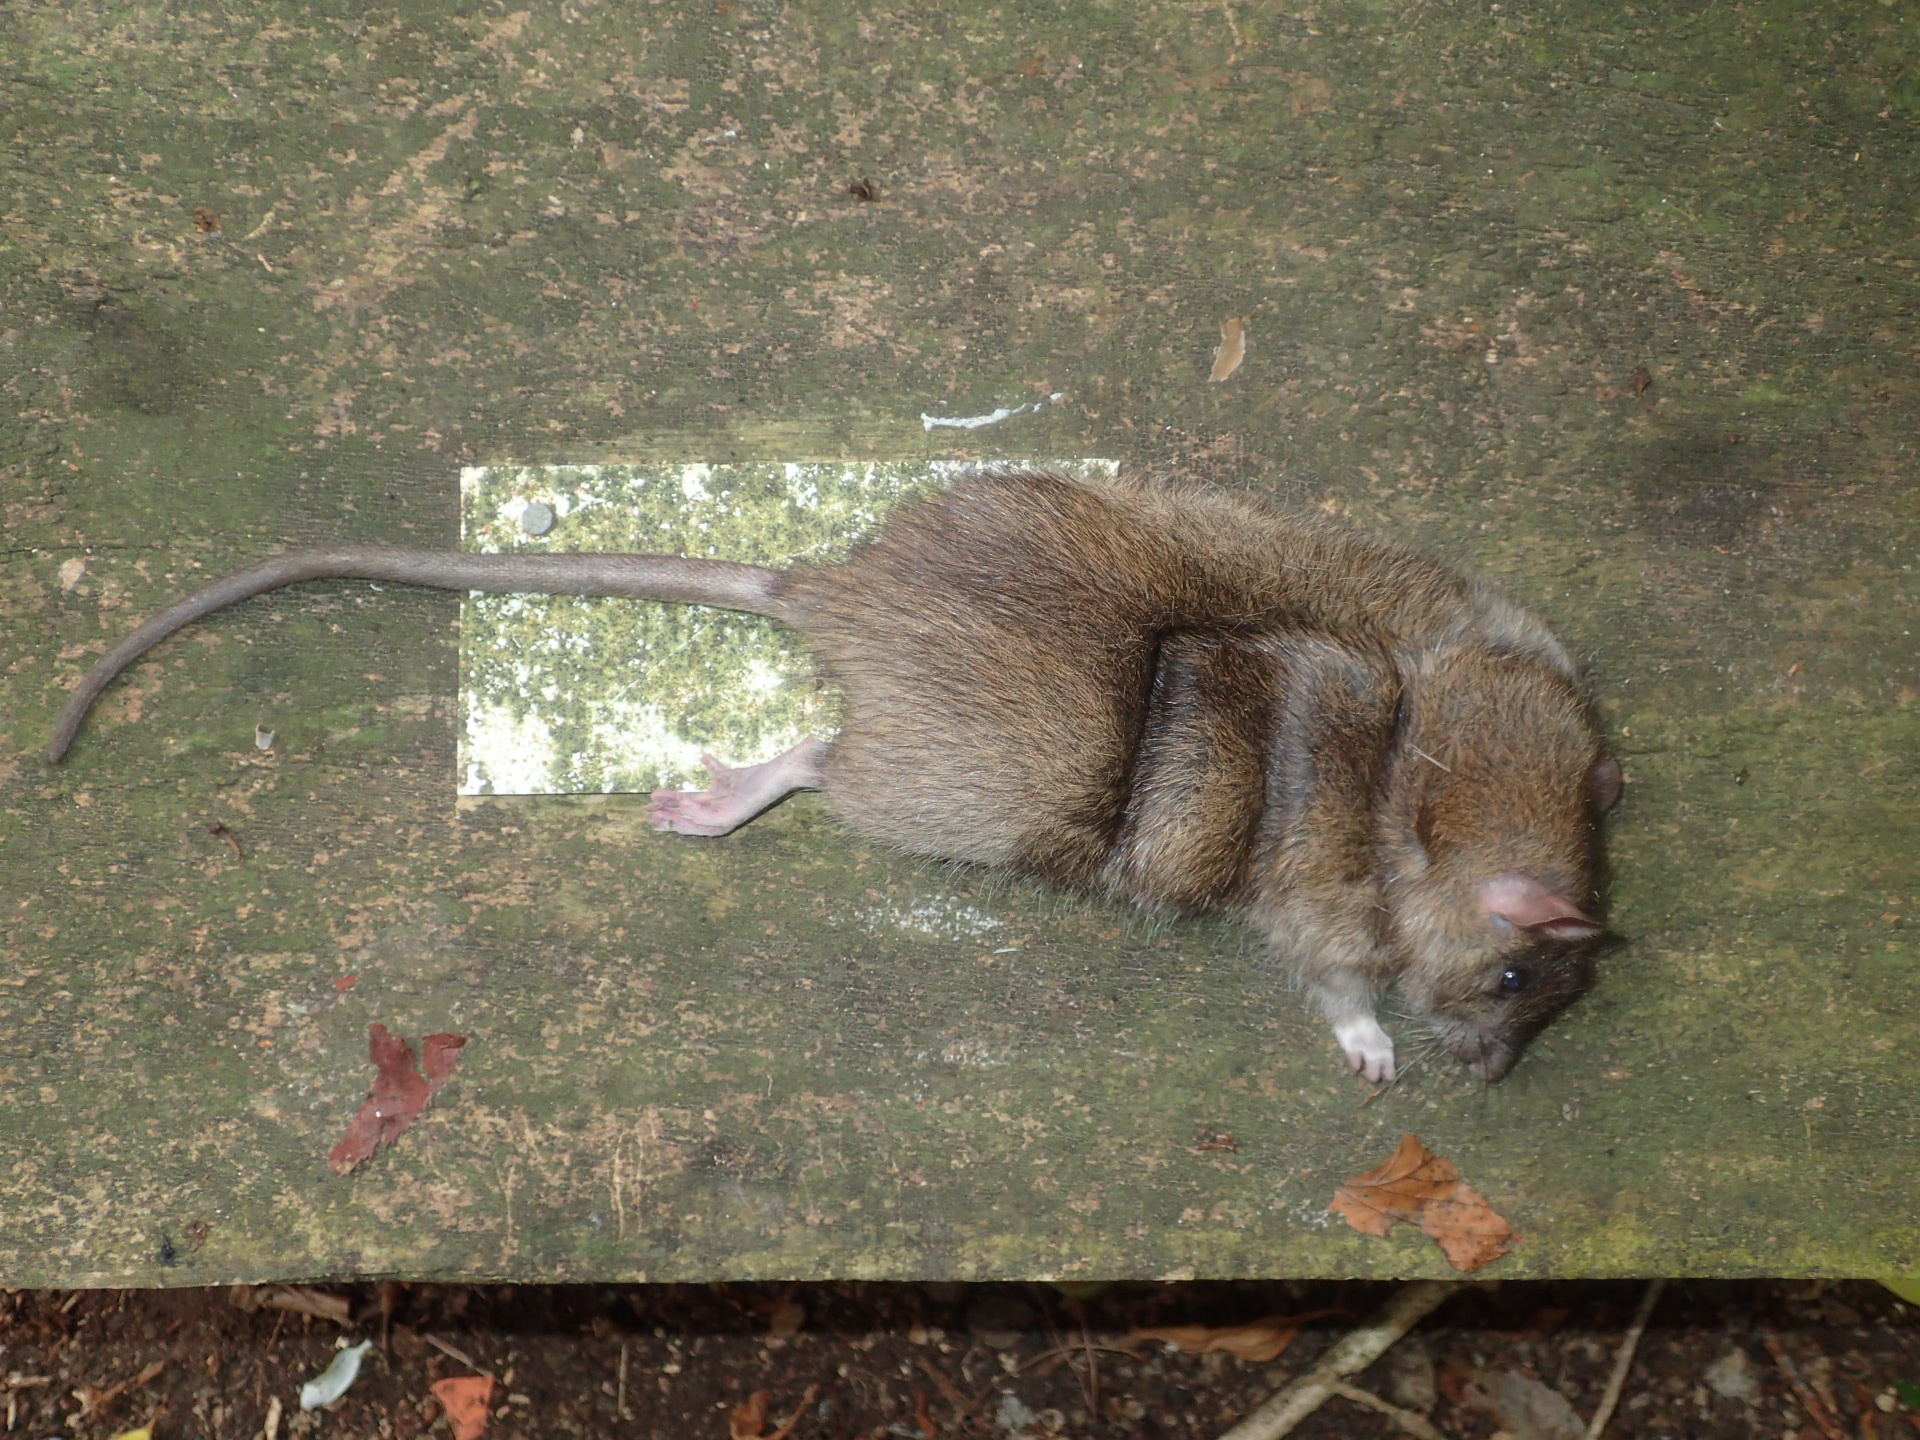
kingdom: Animalia
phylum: Chordata
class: Mammalia
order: Rodentia
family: Muridae
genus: Rattus
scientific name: Rattus norvegicus
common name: Brown rat
